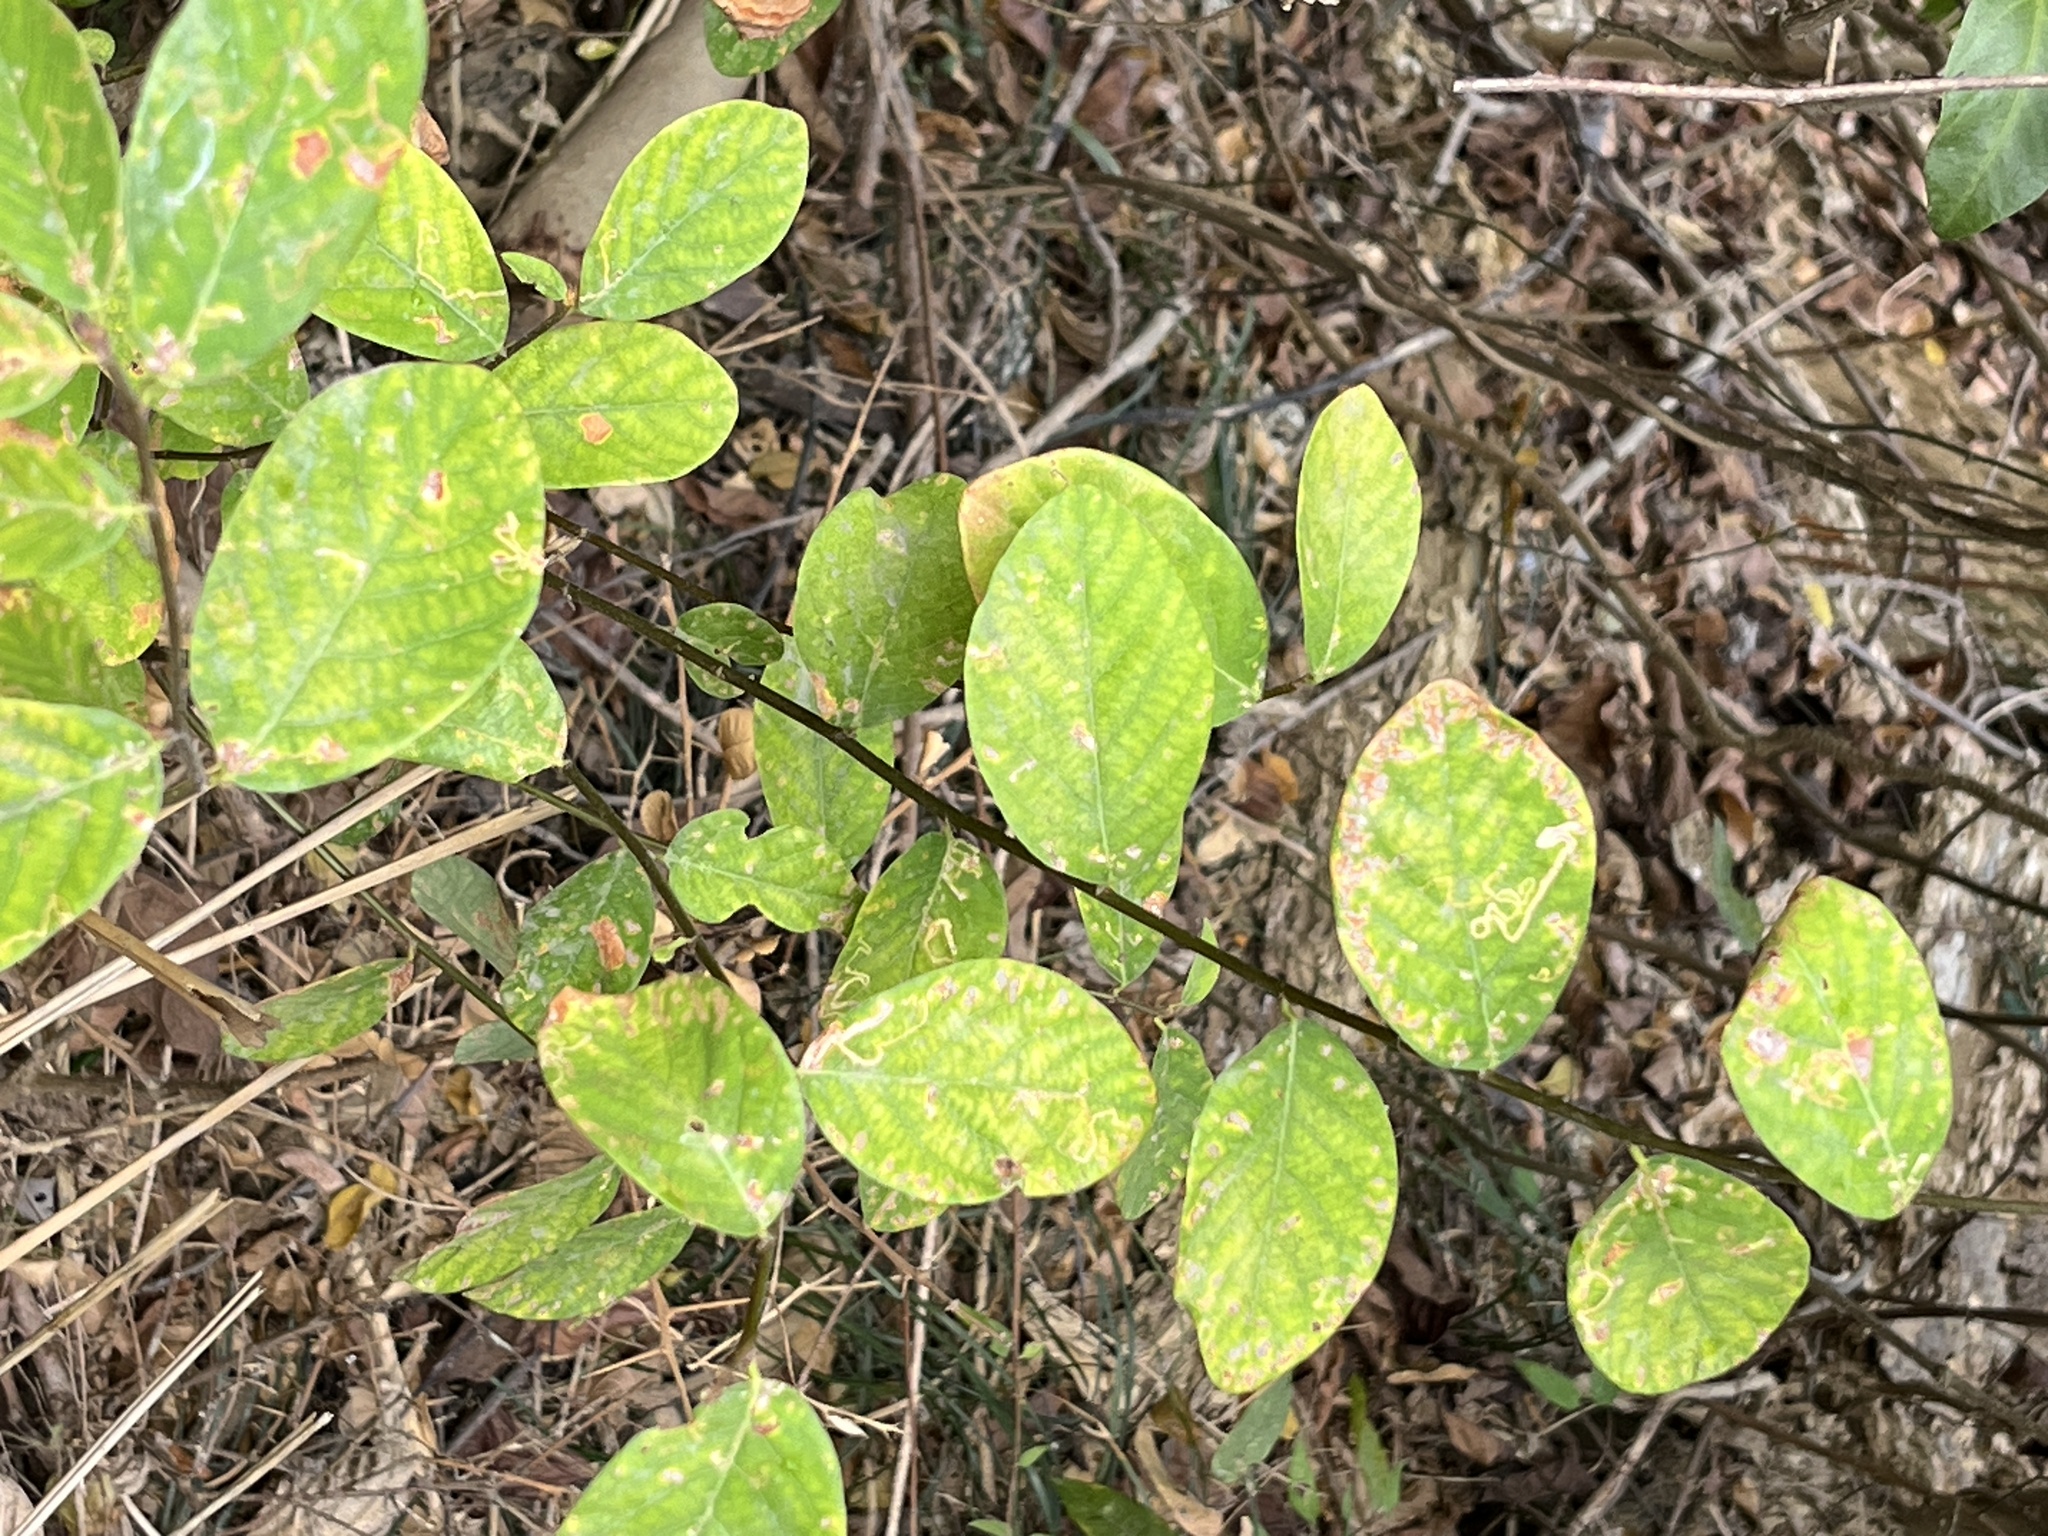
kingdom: Plantae
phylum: Tracheophyta
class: Magnoliopsida
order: Malpighiales
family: Phyllanthaceae
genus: Bridelia
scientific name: Bridelia tomentosa
